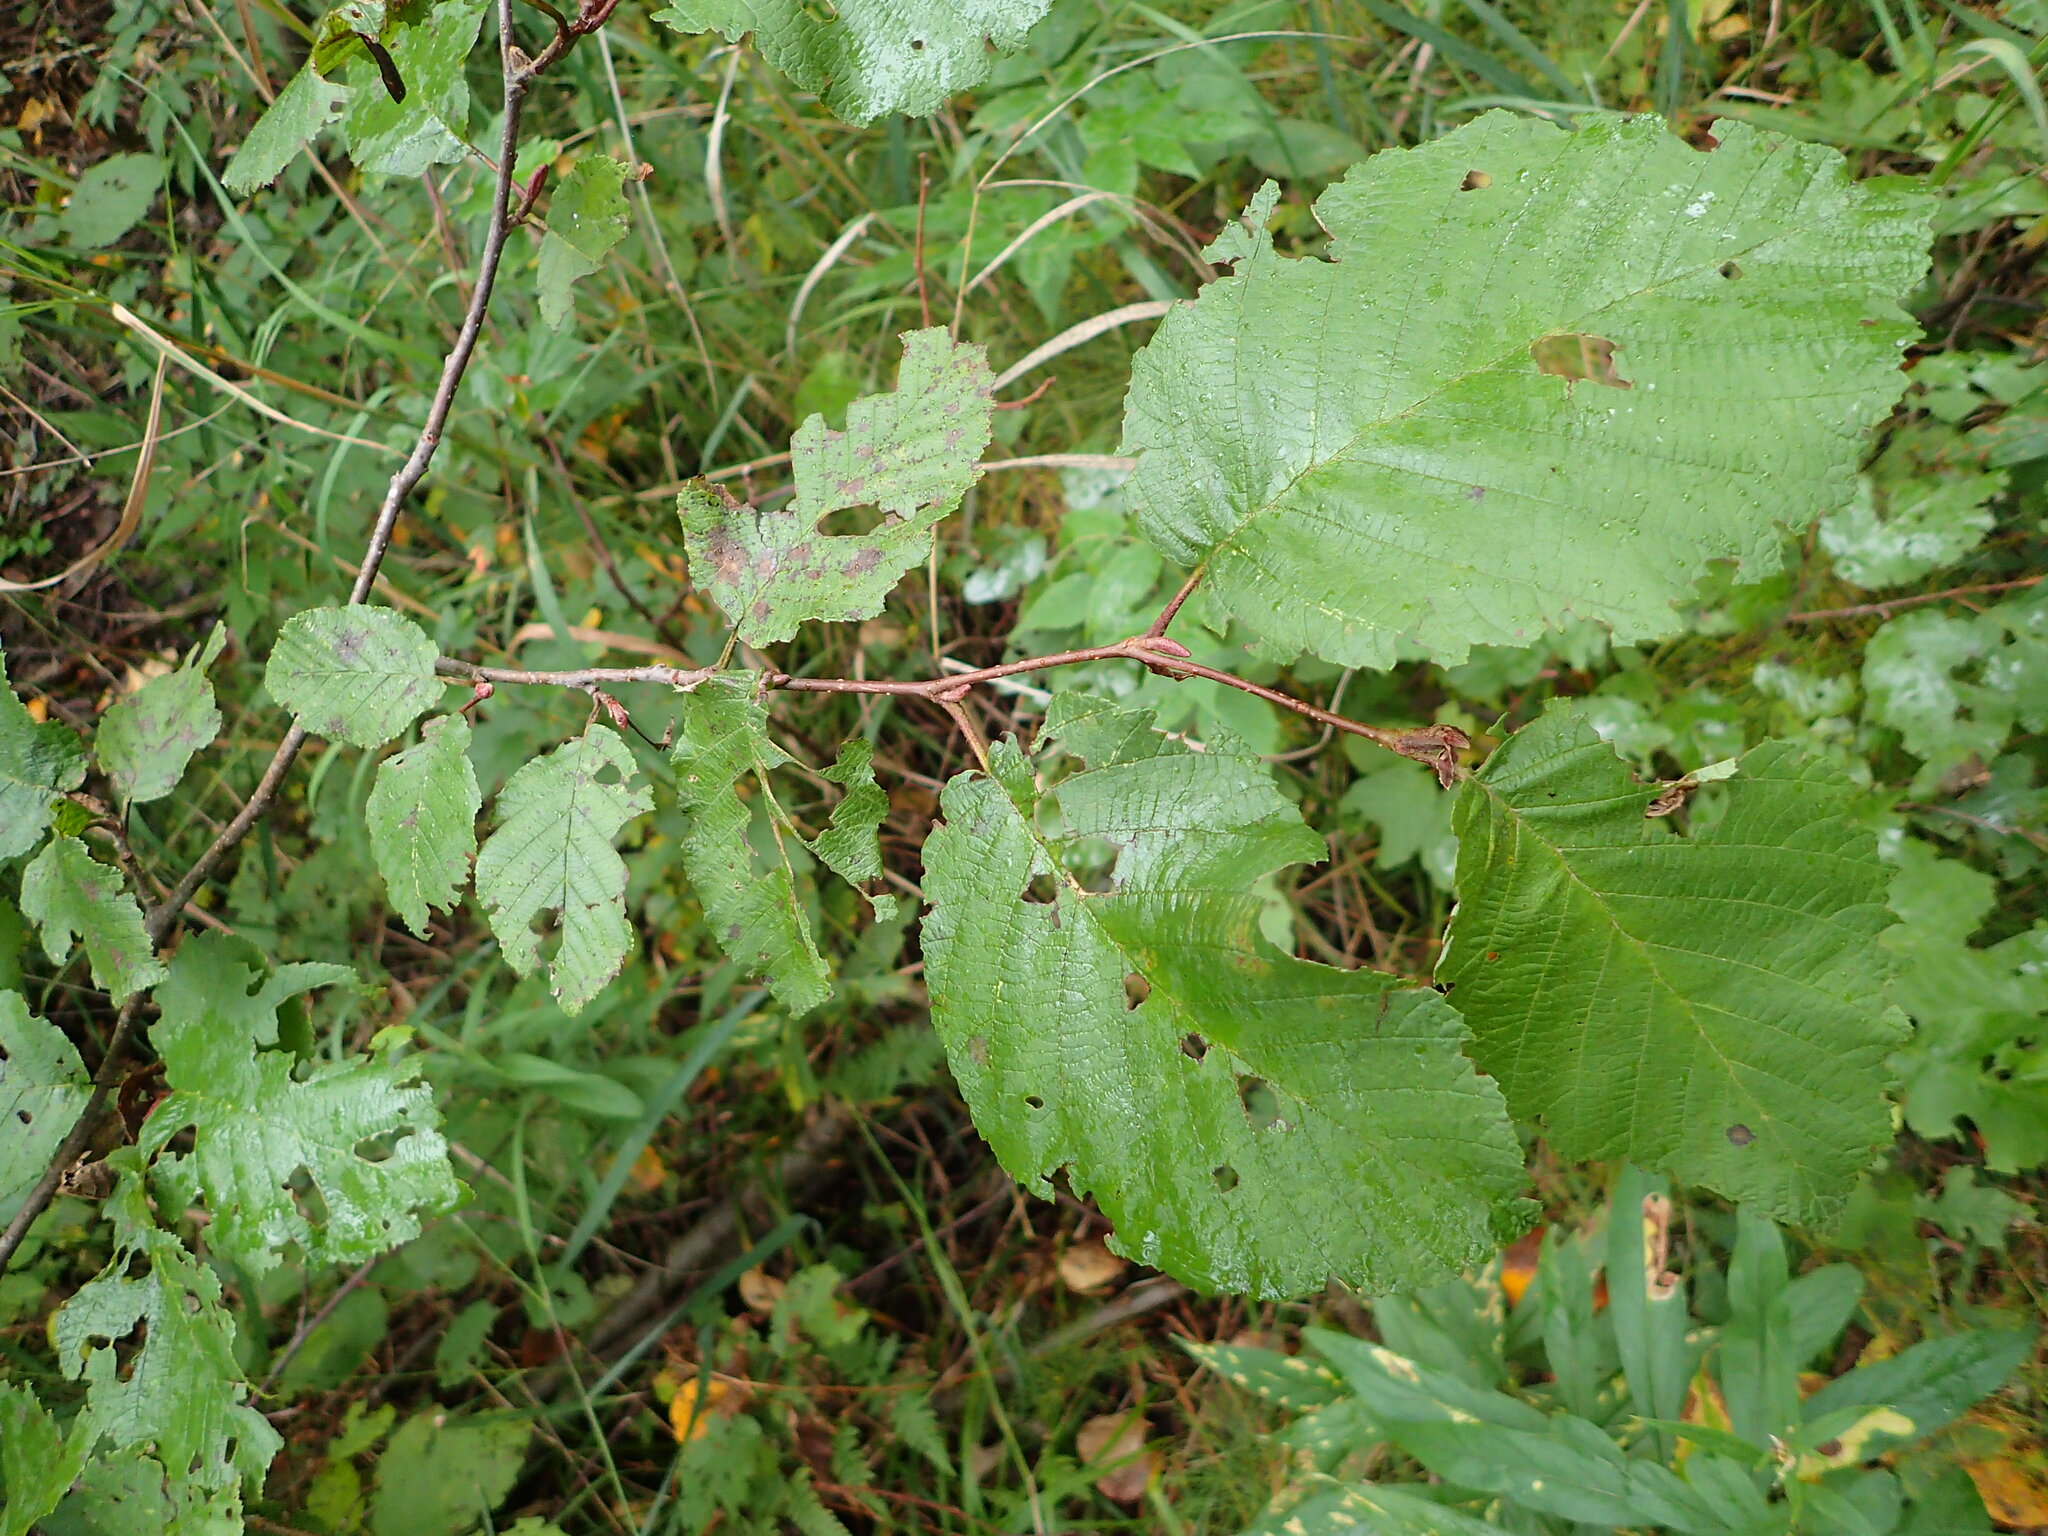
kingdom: Plantae
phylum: Tracheophyta
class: Magnoliopsida
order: Fagales
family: Betulaceae
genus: Alnus
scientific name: Alnus incana
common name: Grey alder
